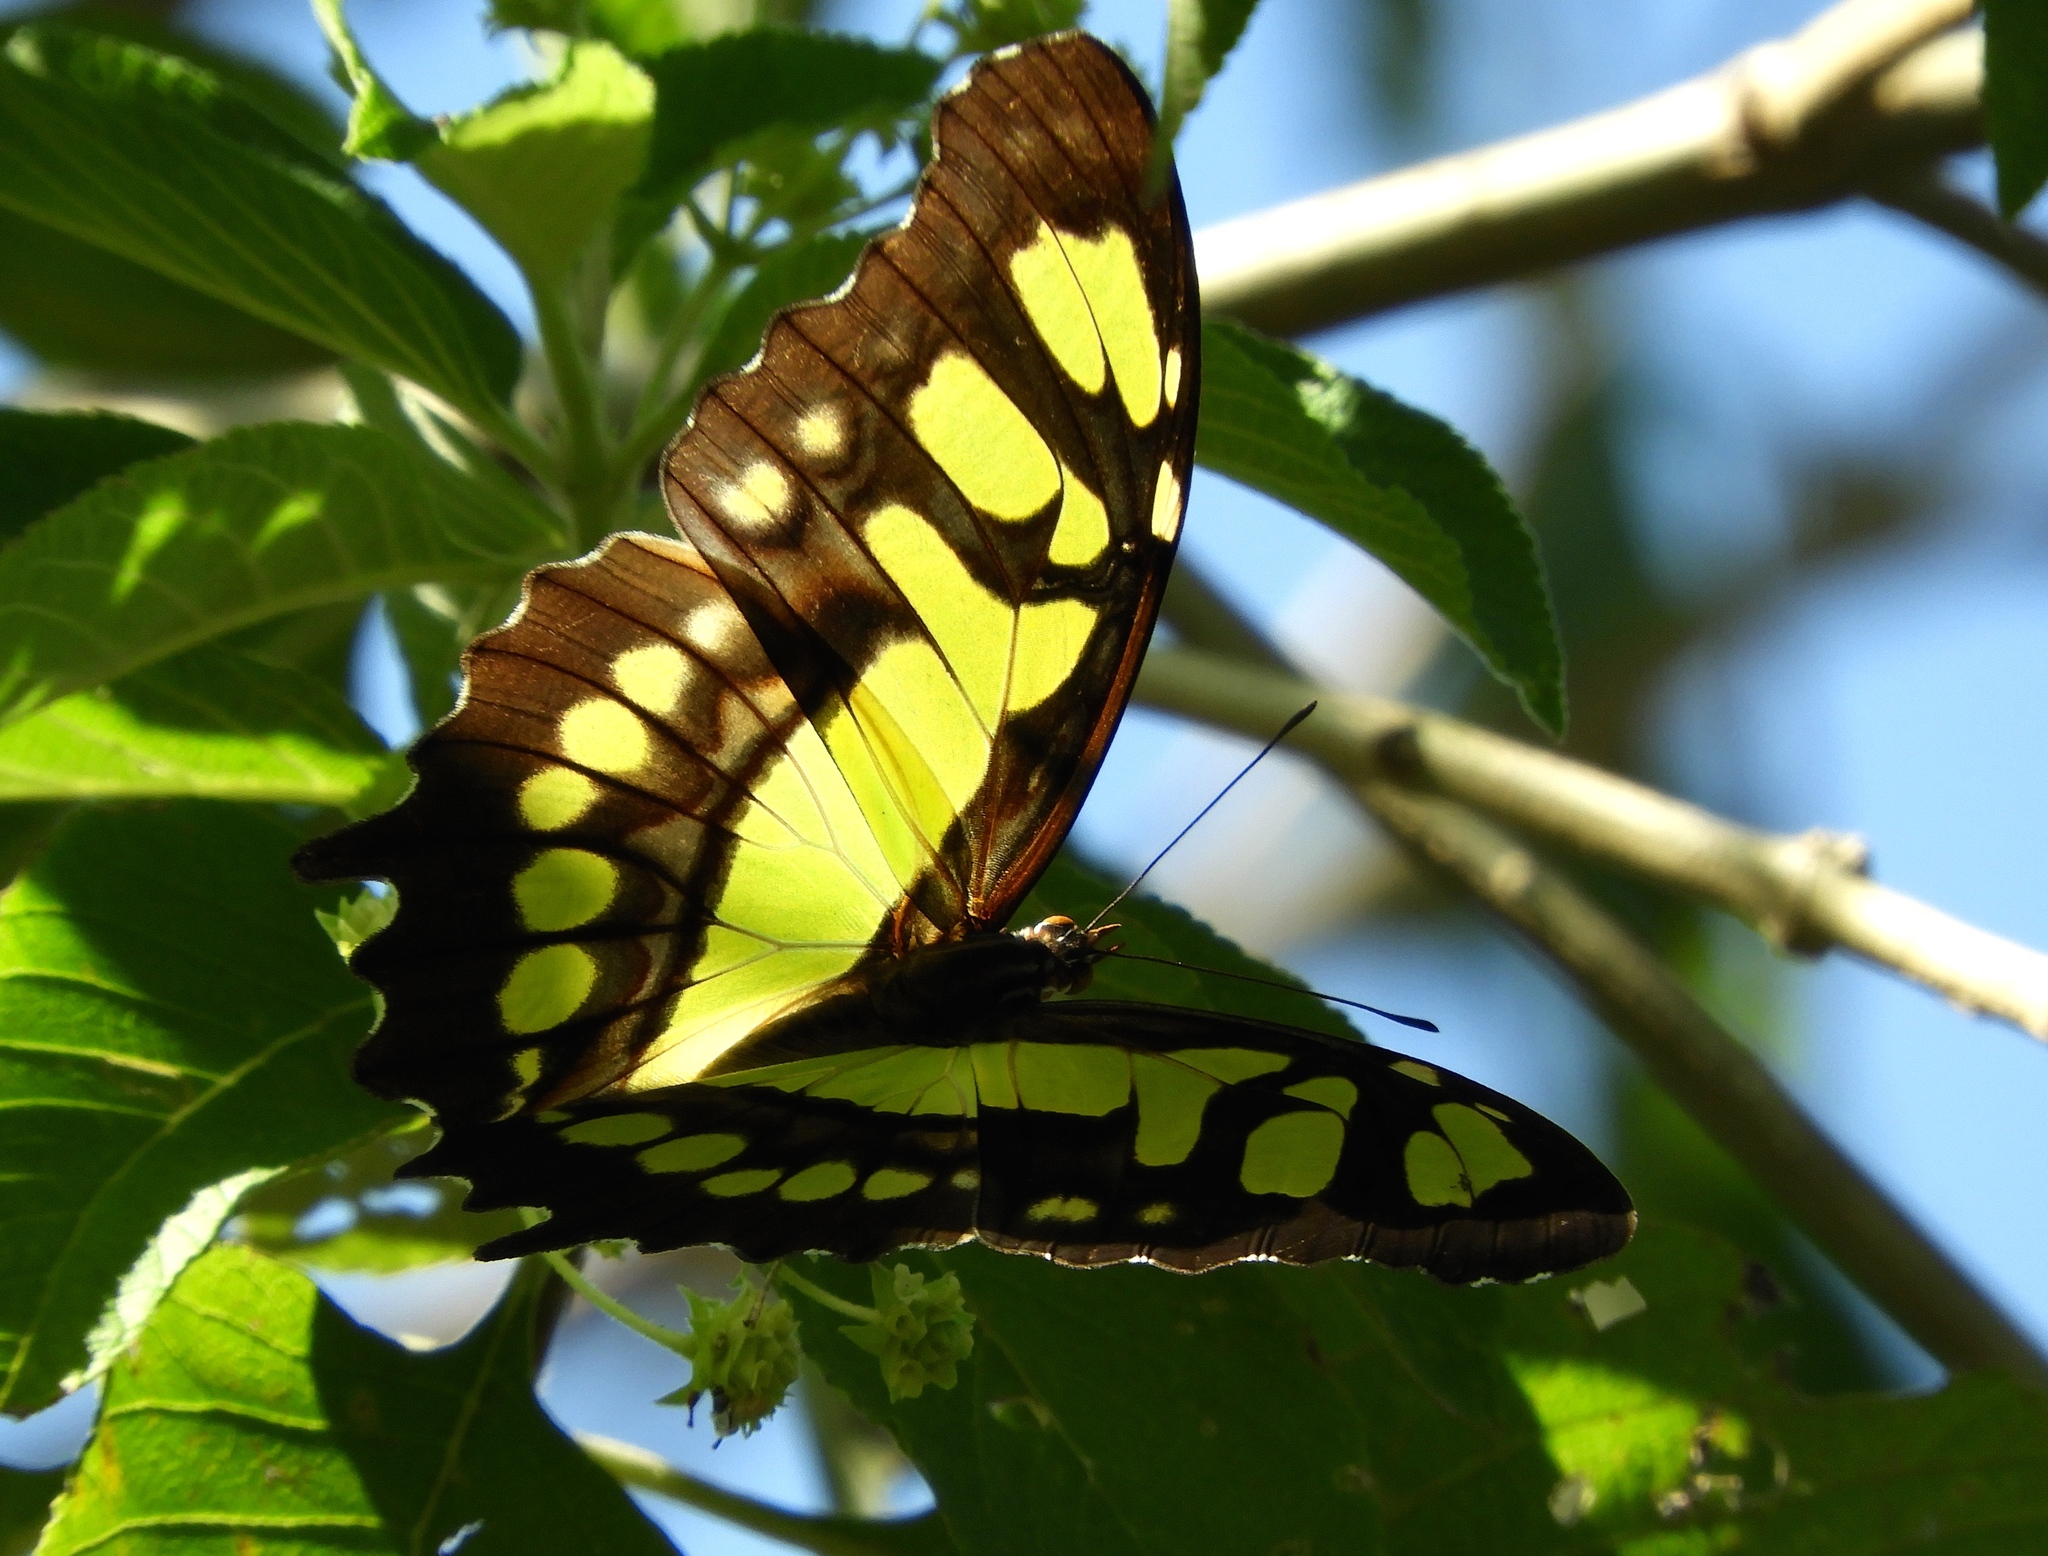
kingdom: Animalia
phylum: Arthropoda
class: Insecta
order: Lepidoptera
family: Nymphalidae
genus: Siproeta
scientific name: Siproeta stelenes
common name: Malachite
